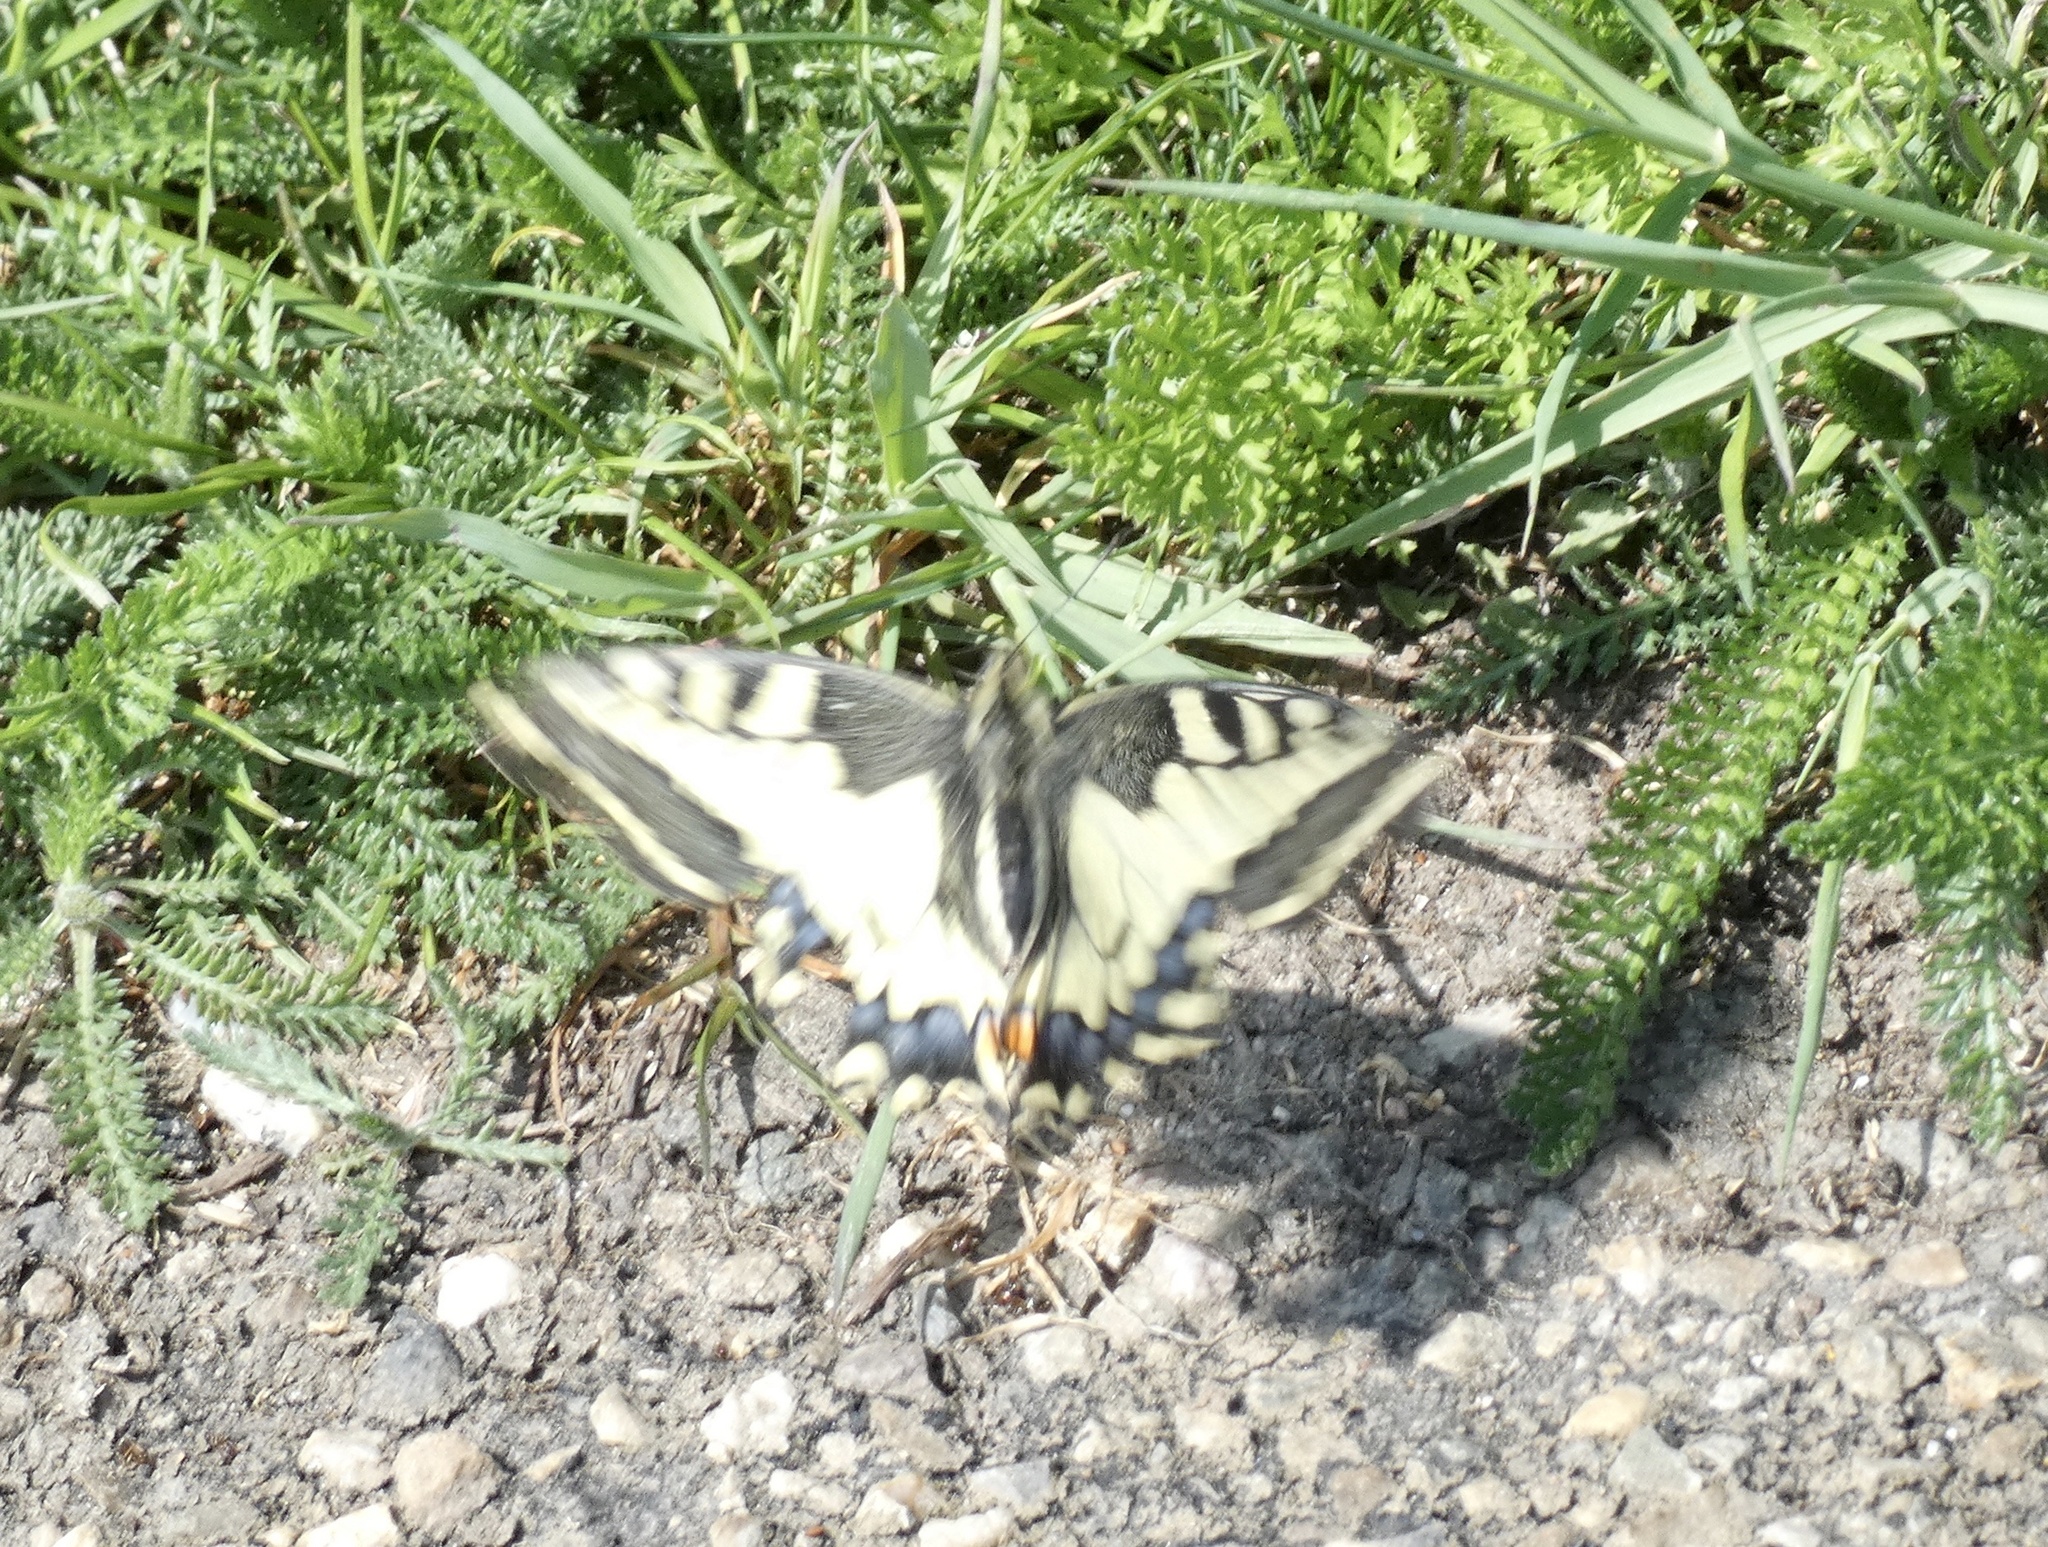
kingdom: Animalia
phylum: Arthropoda
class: Insecta
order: Lepidoptera
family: Papilionidae
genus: Papilio
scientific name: Papilio machaon
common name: Swallowtail
